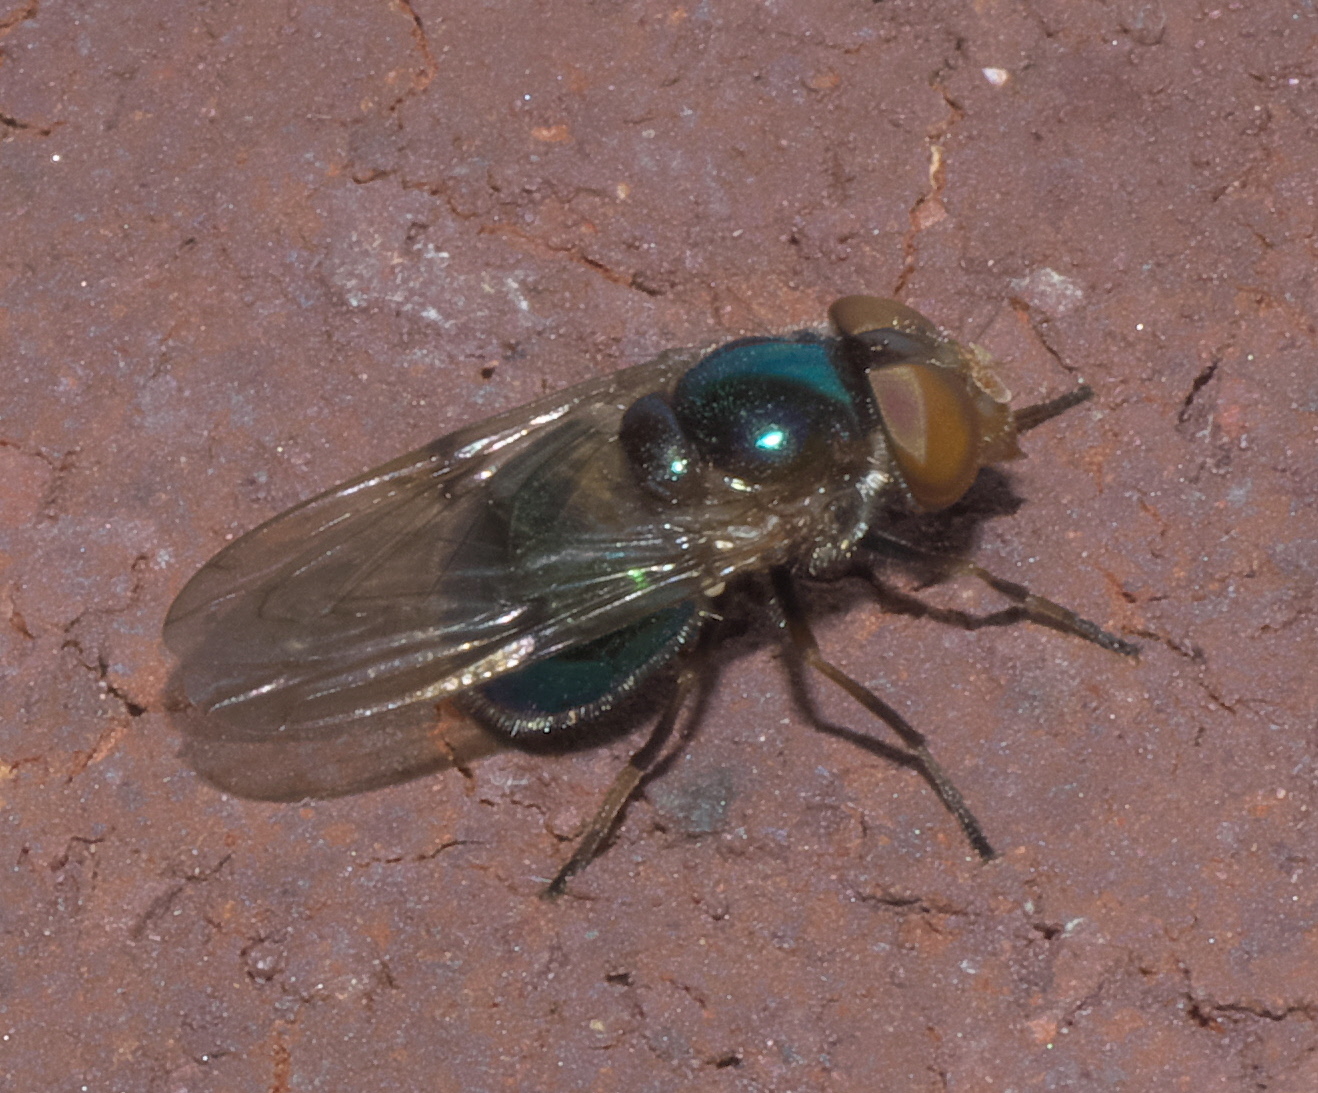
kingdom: Animalia
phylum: Arthropoda
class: Insecta
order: Diptera
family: Syrphidae
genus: Copestylum
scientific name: Copestylum vesicularium
